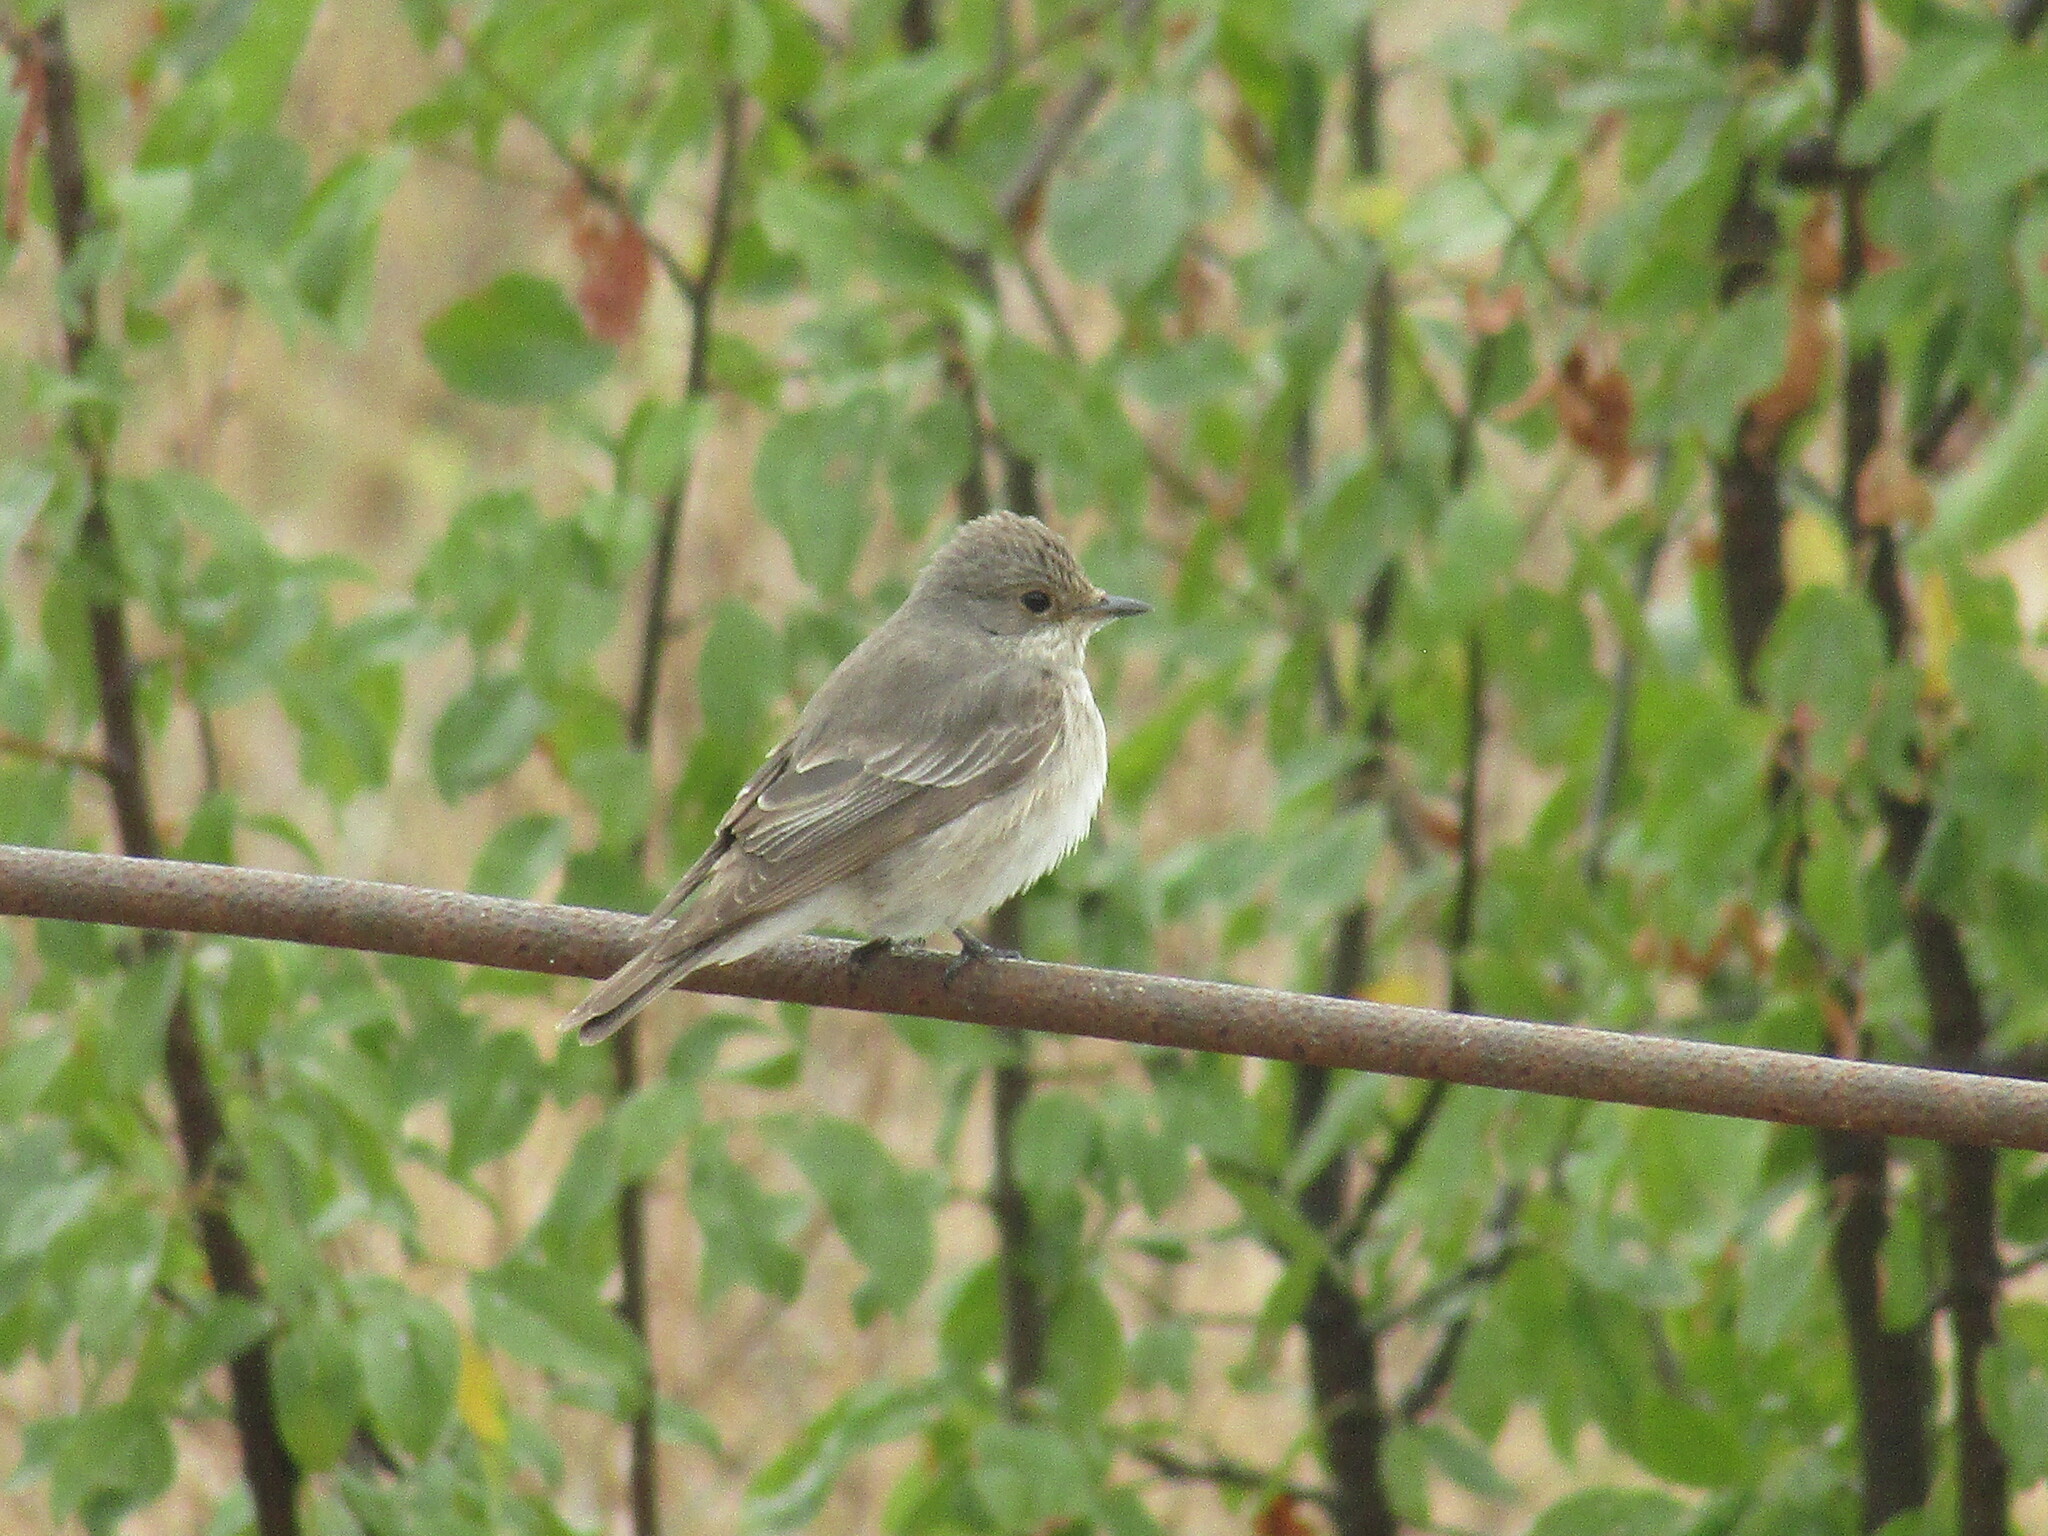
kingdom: Animalia
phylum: Chordata
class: Aves
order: Passeriformes
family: Muscicapidae
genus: Muscicapa
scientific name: Muscicapa striata
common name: Spotted flycatcher
